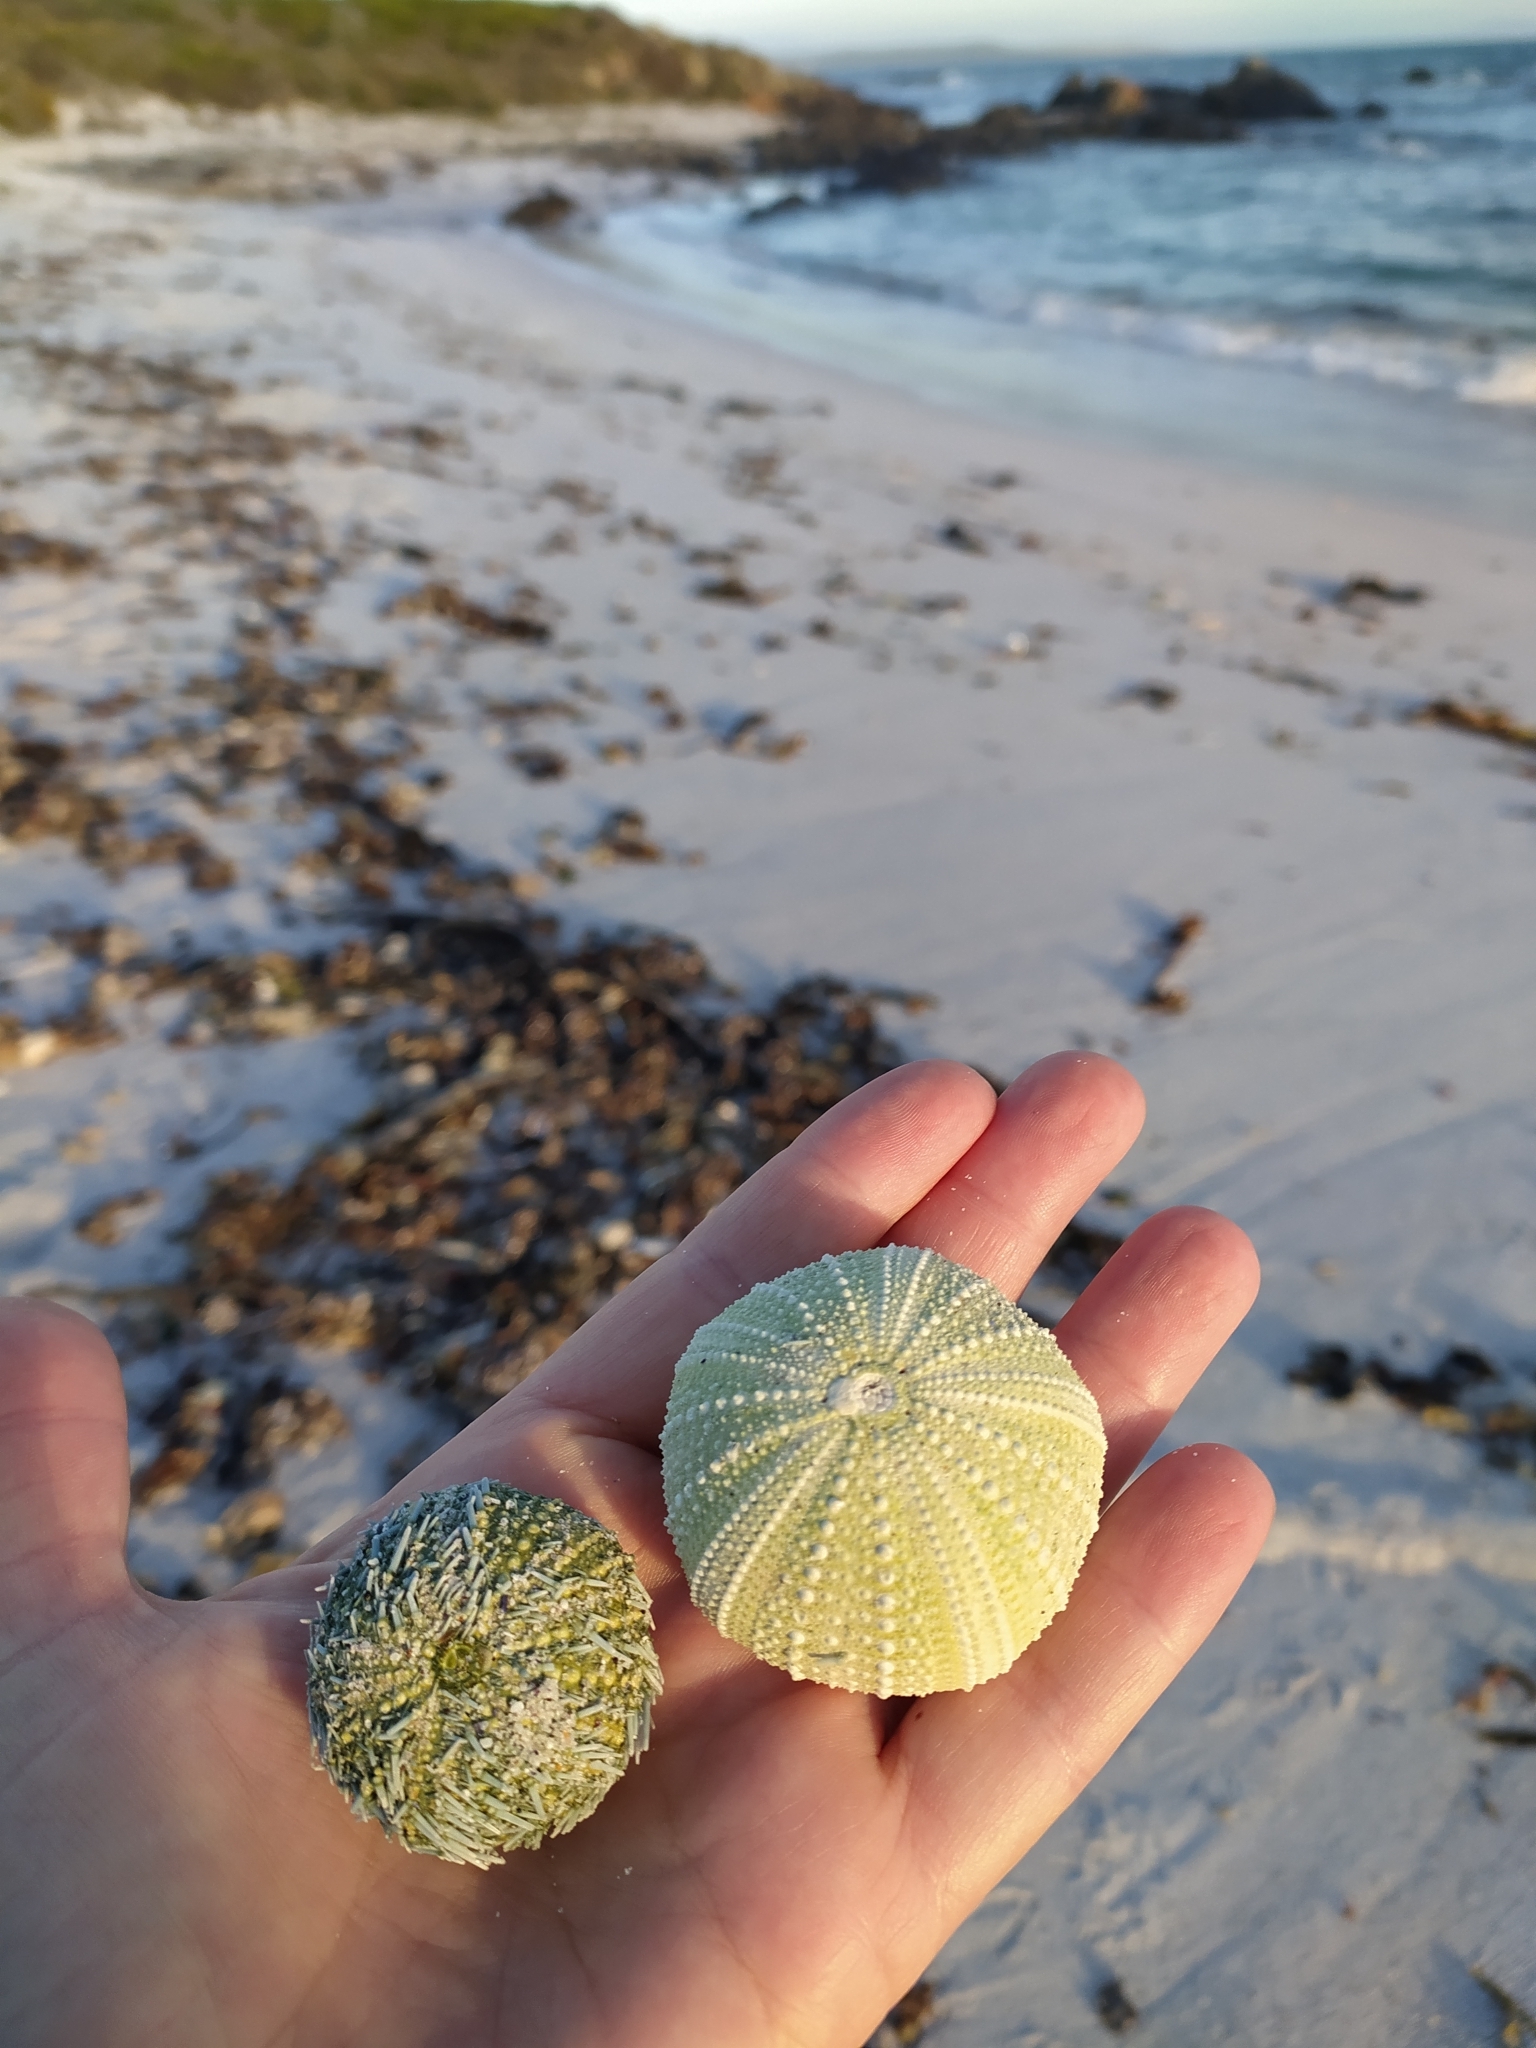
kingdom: Animalia
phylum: Echinodermata
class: Echinoidea
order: Camarodonta
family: Parechinidae
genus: Parechinus
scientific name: Parechinus angulosus
